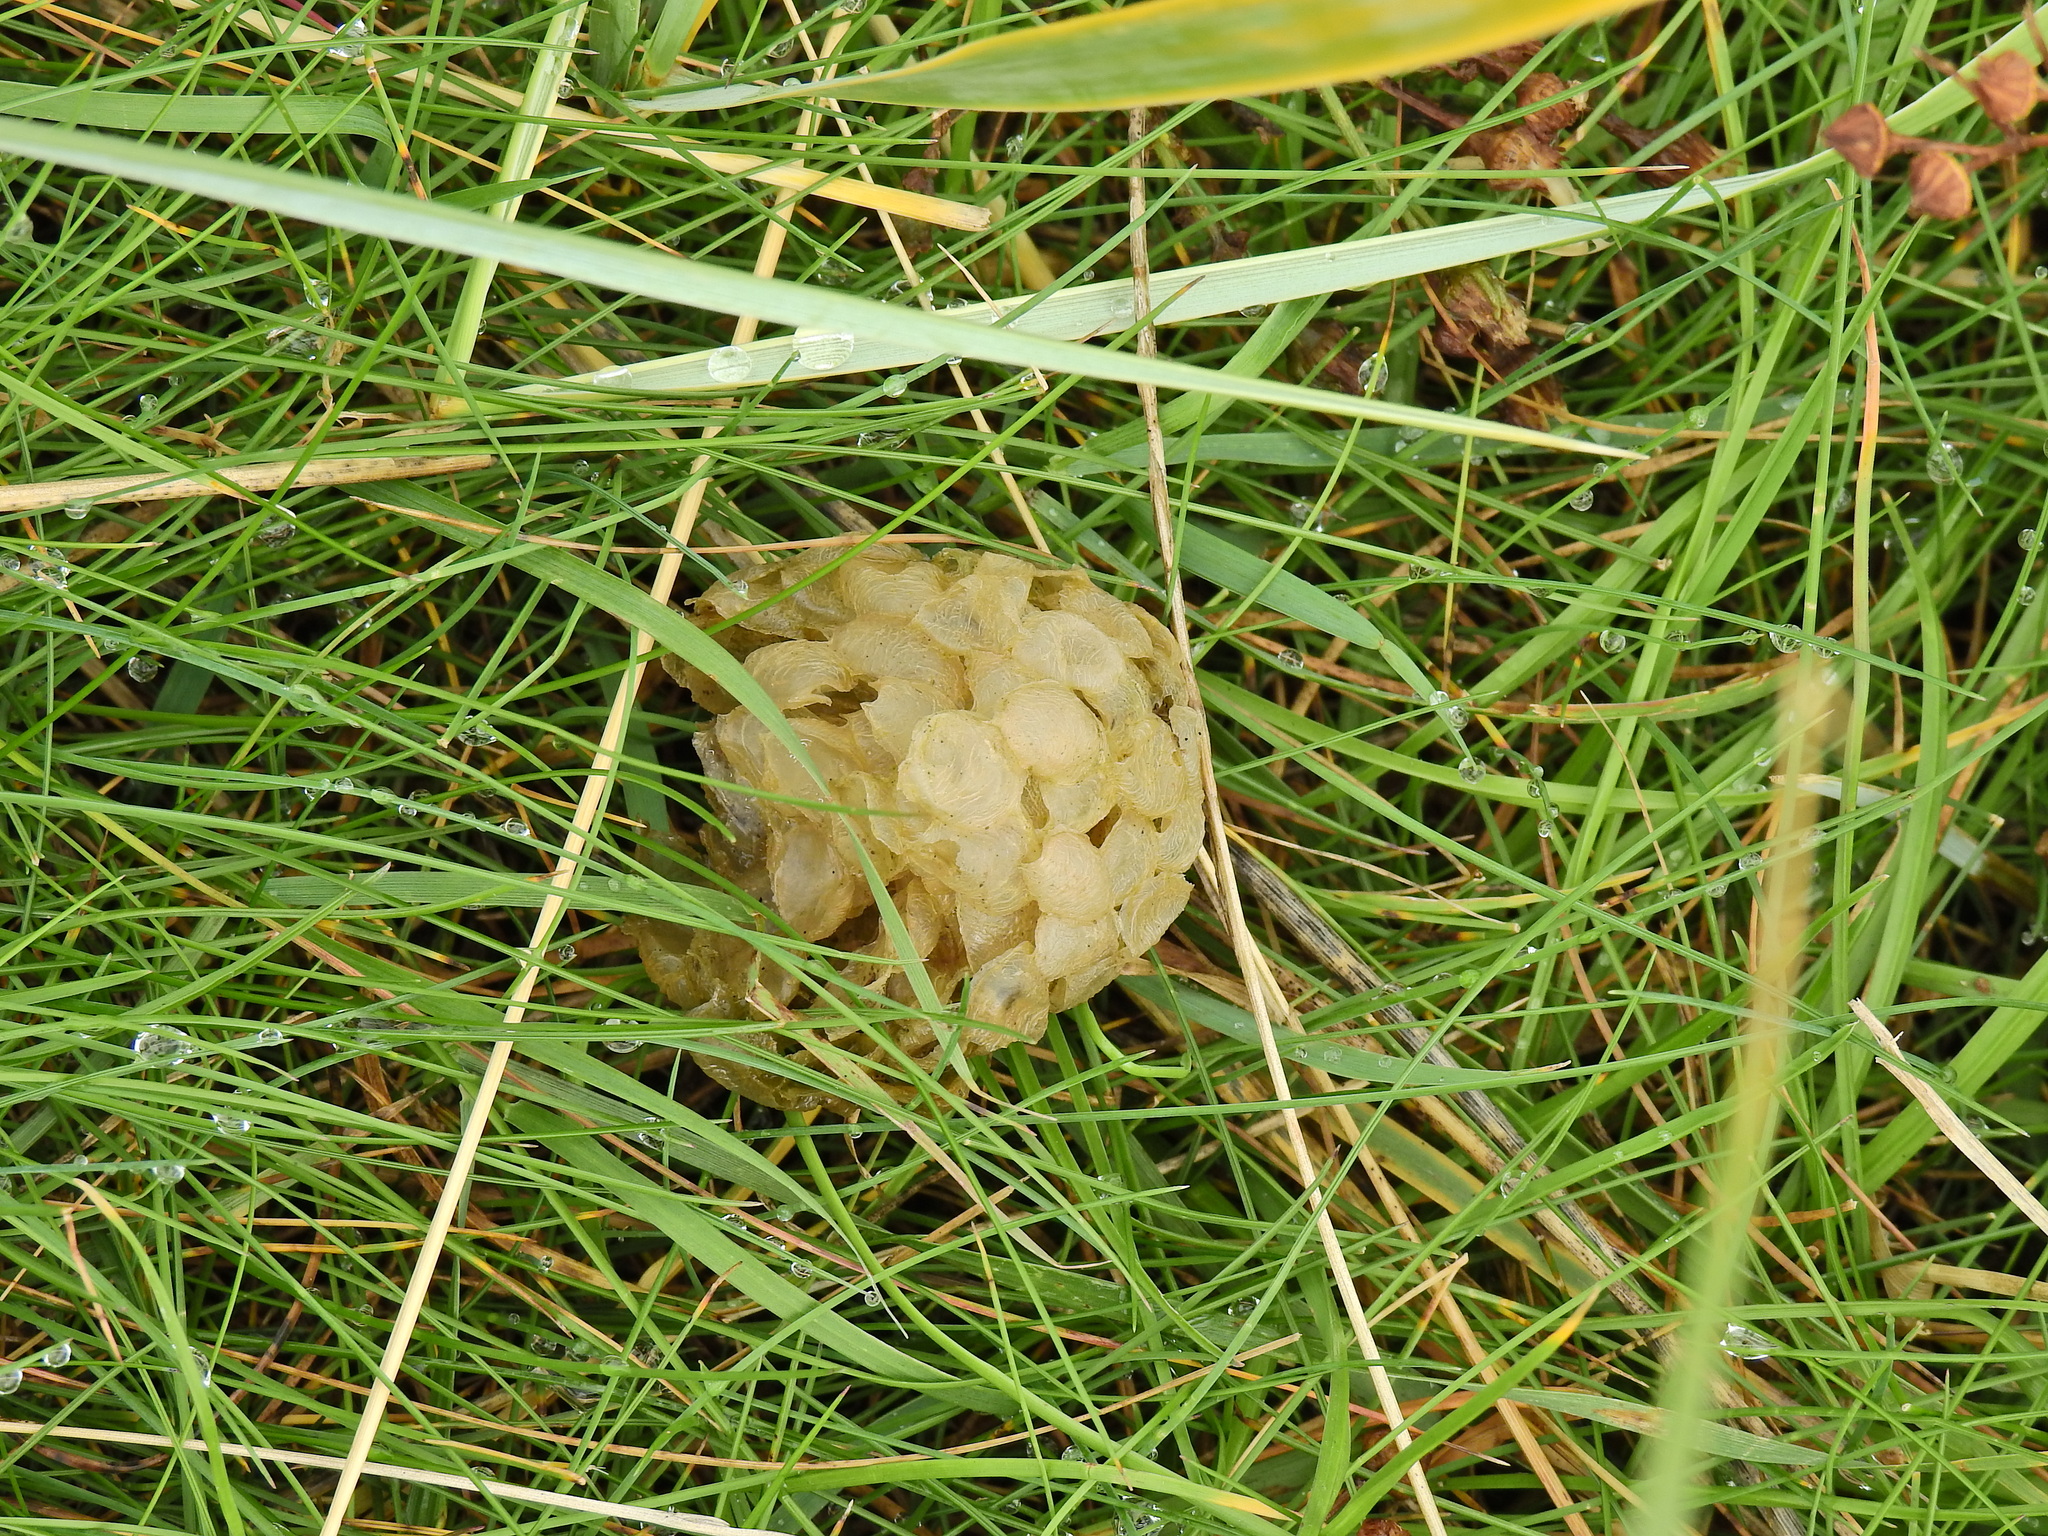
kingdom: Animalia
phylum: Mollusca
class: Gastropoda
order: Neogastropoda
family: Buccinidae
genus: Buccinum
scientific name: Buccinum undatum
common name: Common whelk
